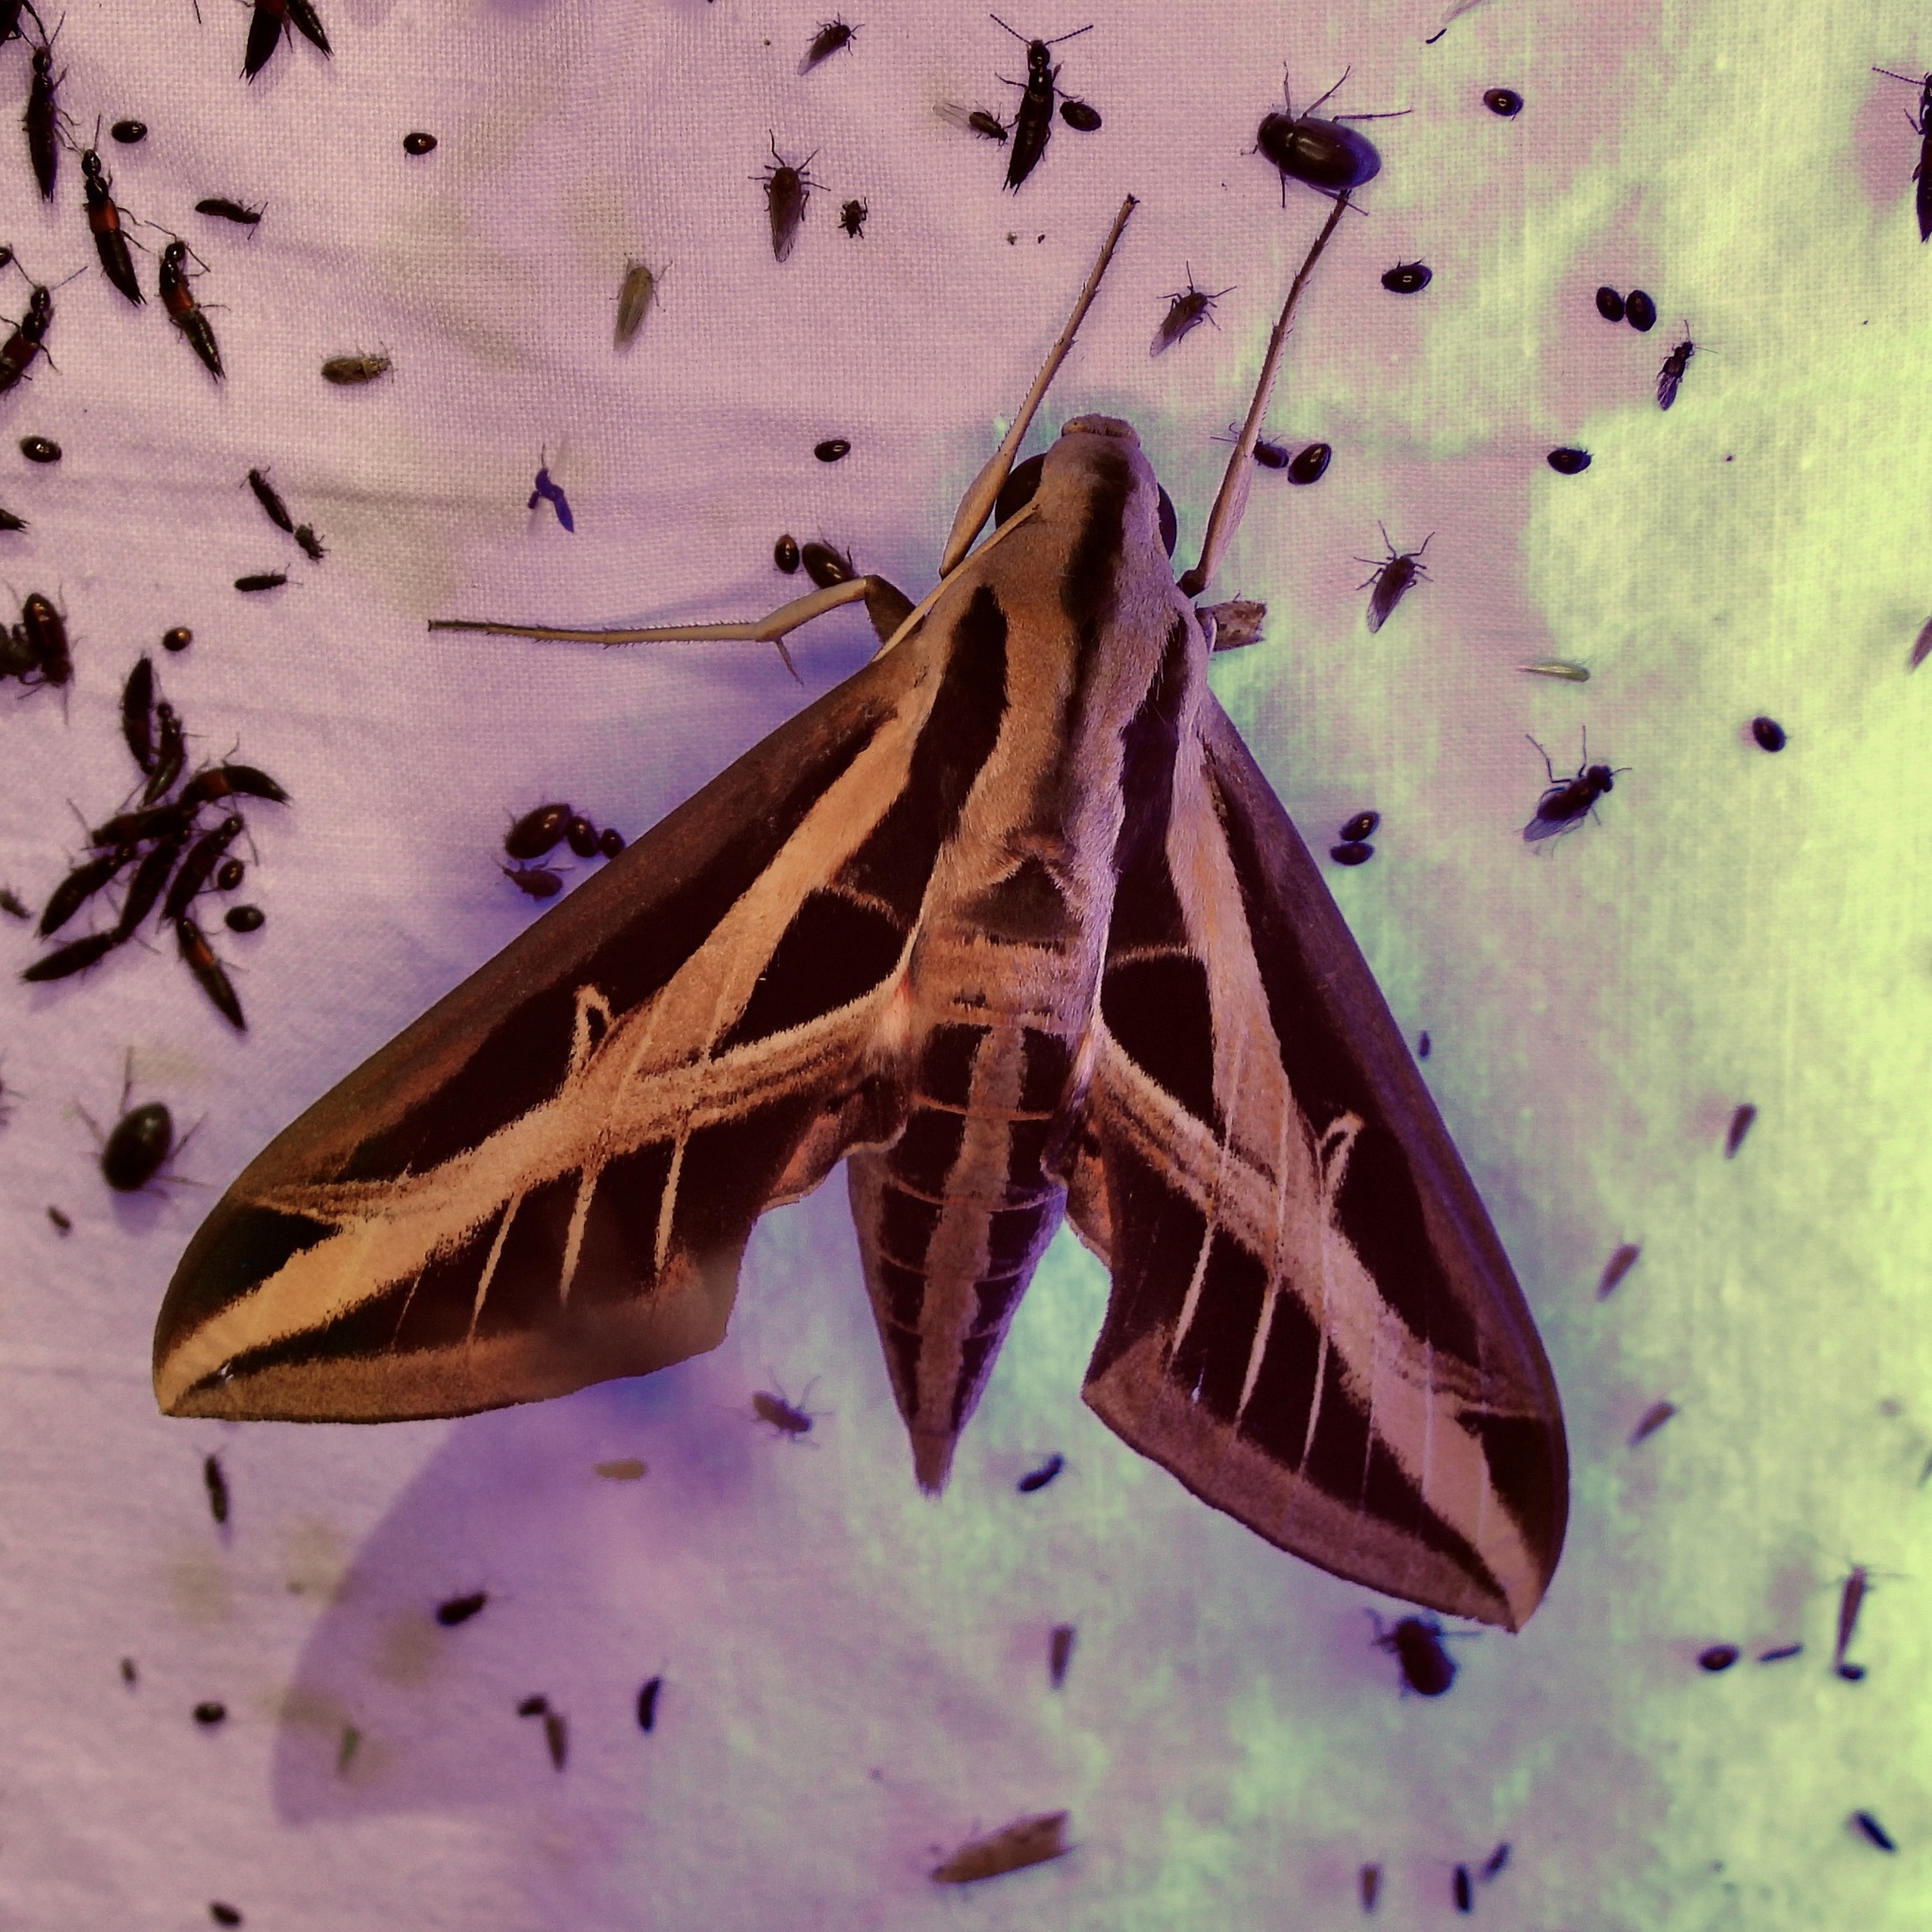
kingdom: Animalia
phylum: Arthropoda
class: Insecta
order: Lepidoptera
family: Sphingidae
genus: Eumorpha
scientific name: Eumorpha fasciatus
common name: Banded sphinx
